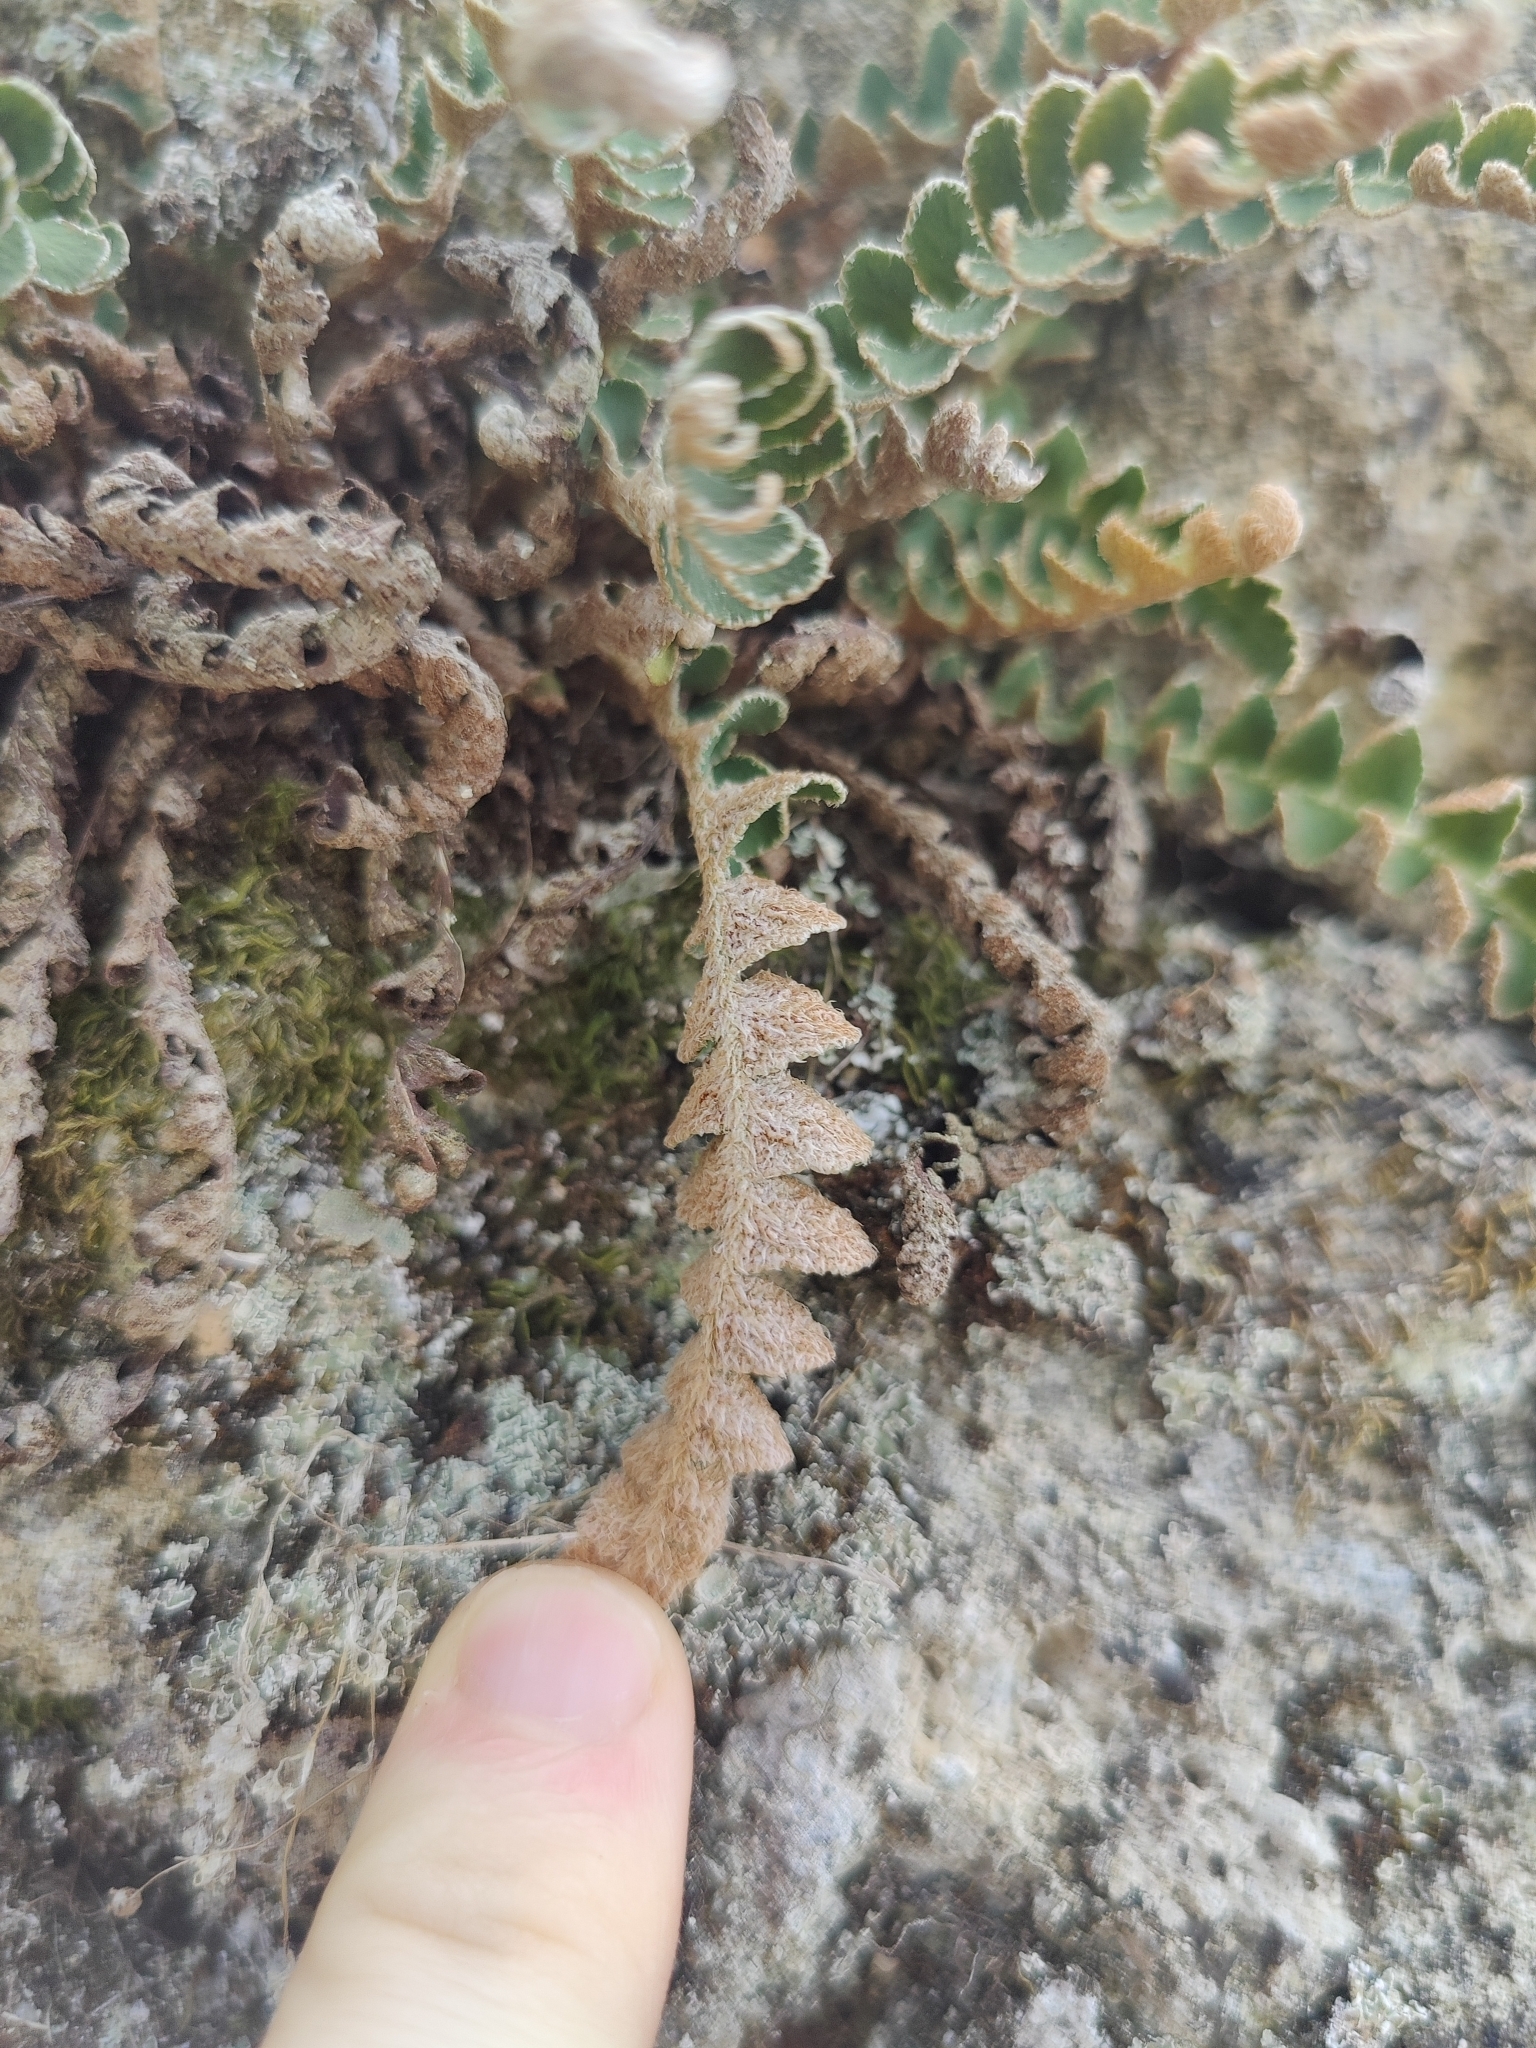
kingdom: Plantae
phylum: Tracheophyta
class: Polypodiopsida
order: Polypodiales
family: Aspleniaceae
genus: Asplenium
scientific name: Asplenium ceterach
